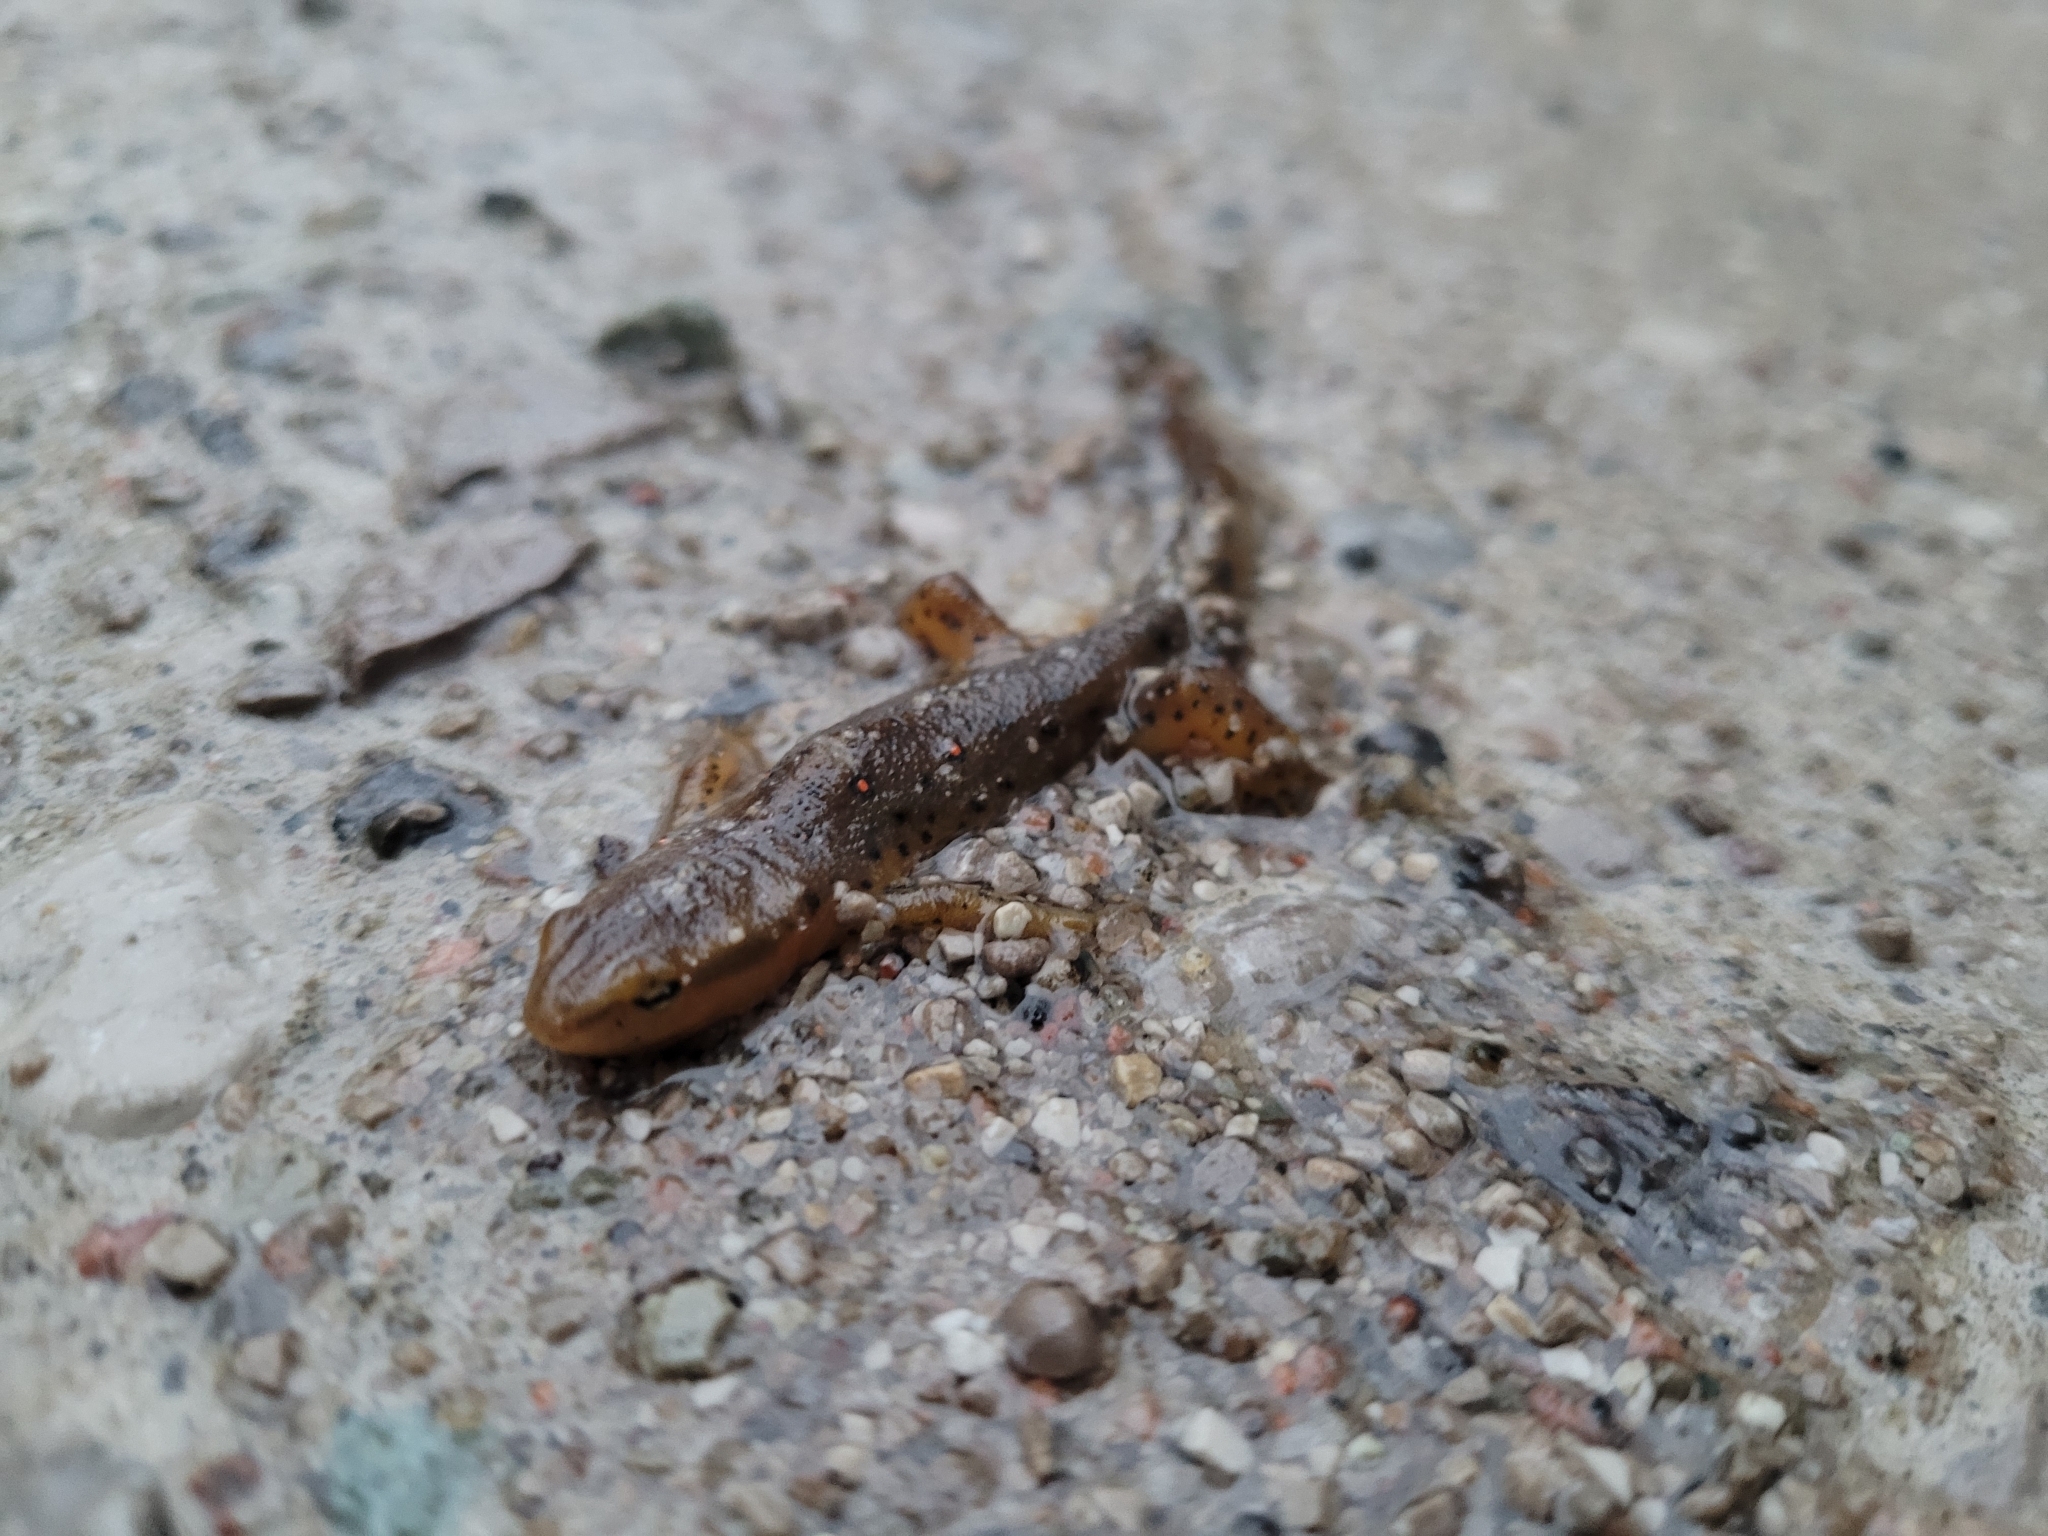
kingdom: Animalia
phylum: Chordata
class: Amphibia
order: Caudata
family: Salamandridae
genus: Notophthalmus
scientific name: Notophthalmus viridescens
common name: Eastern newt
